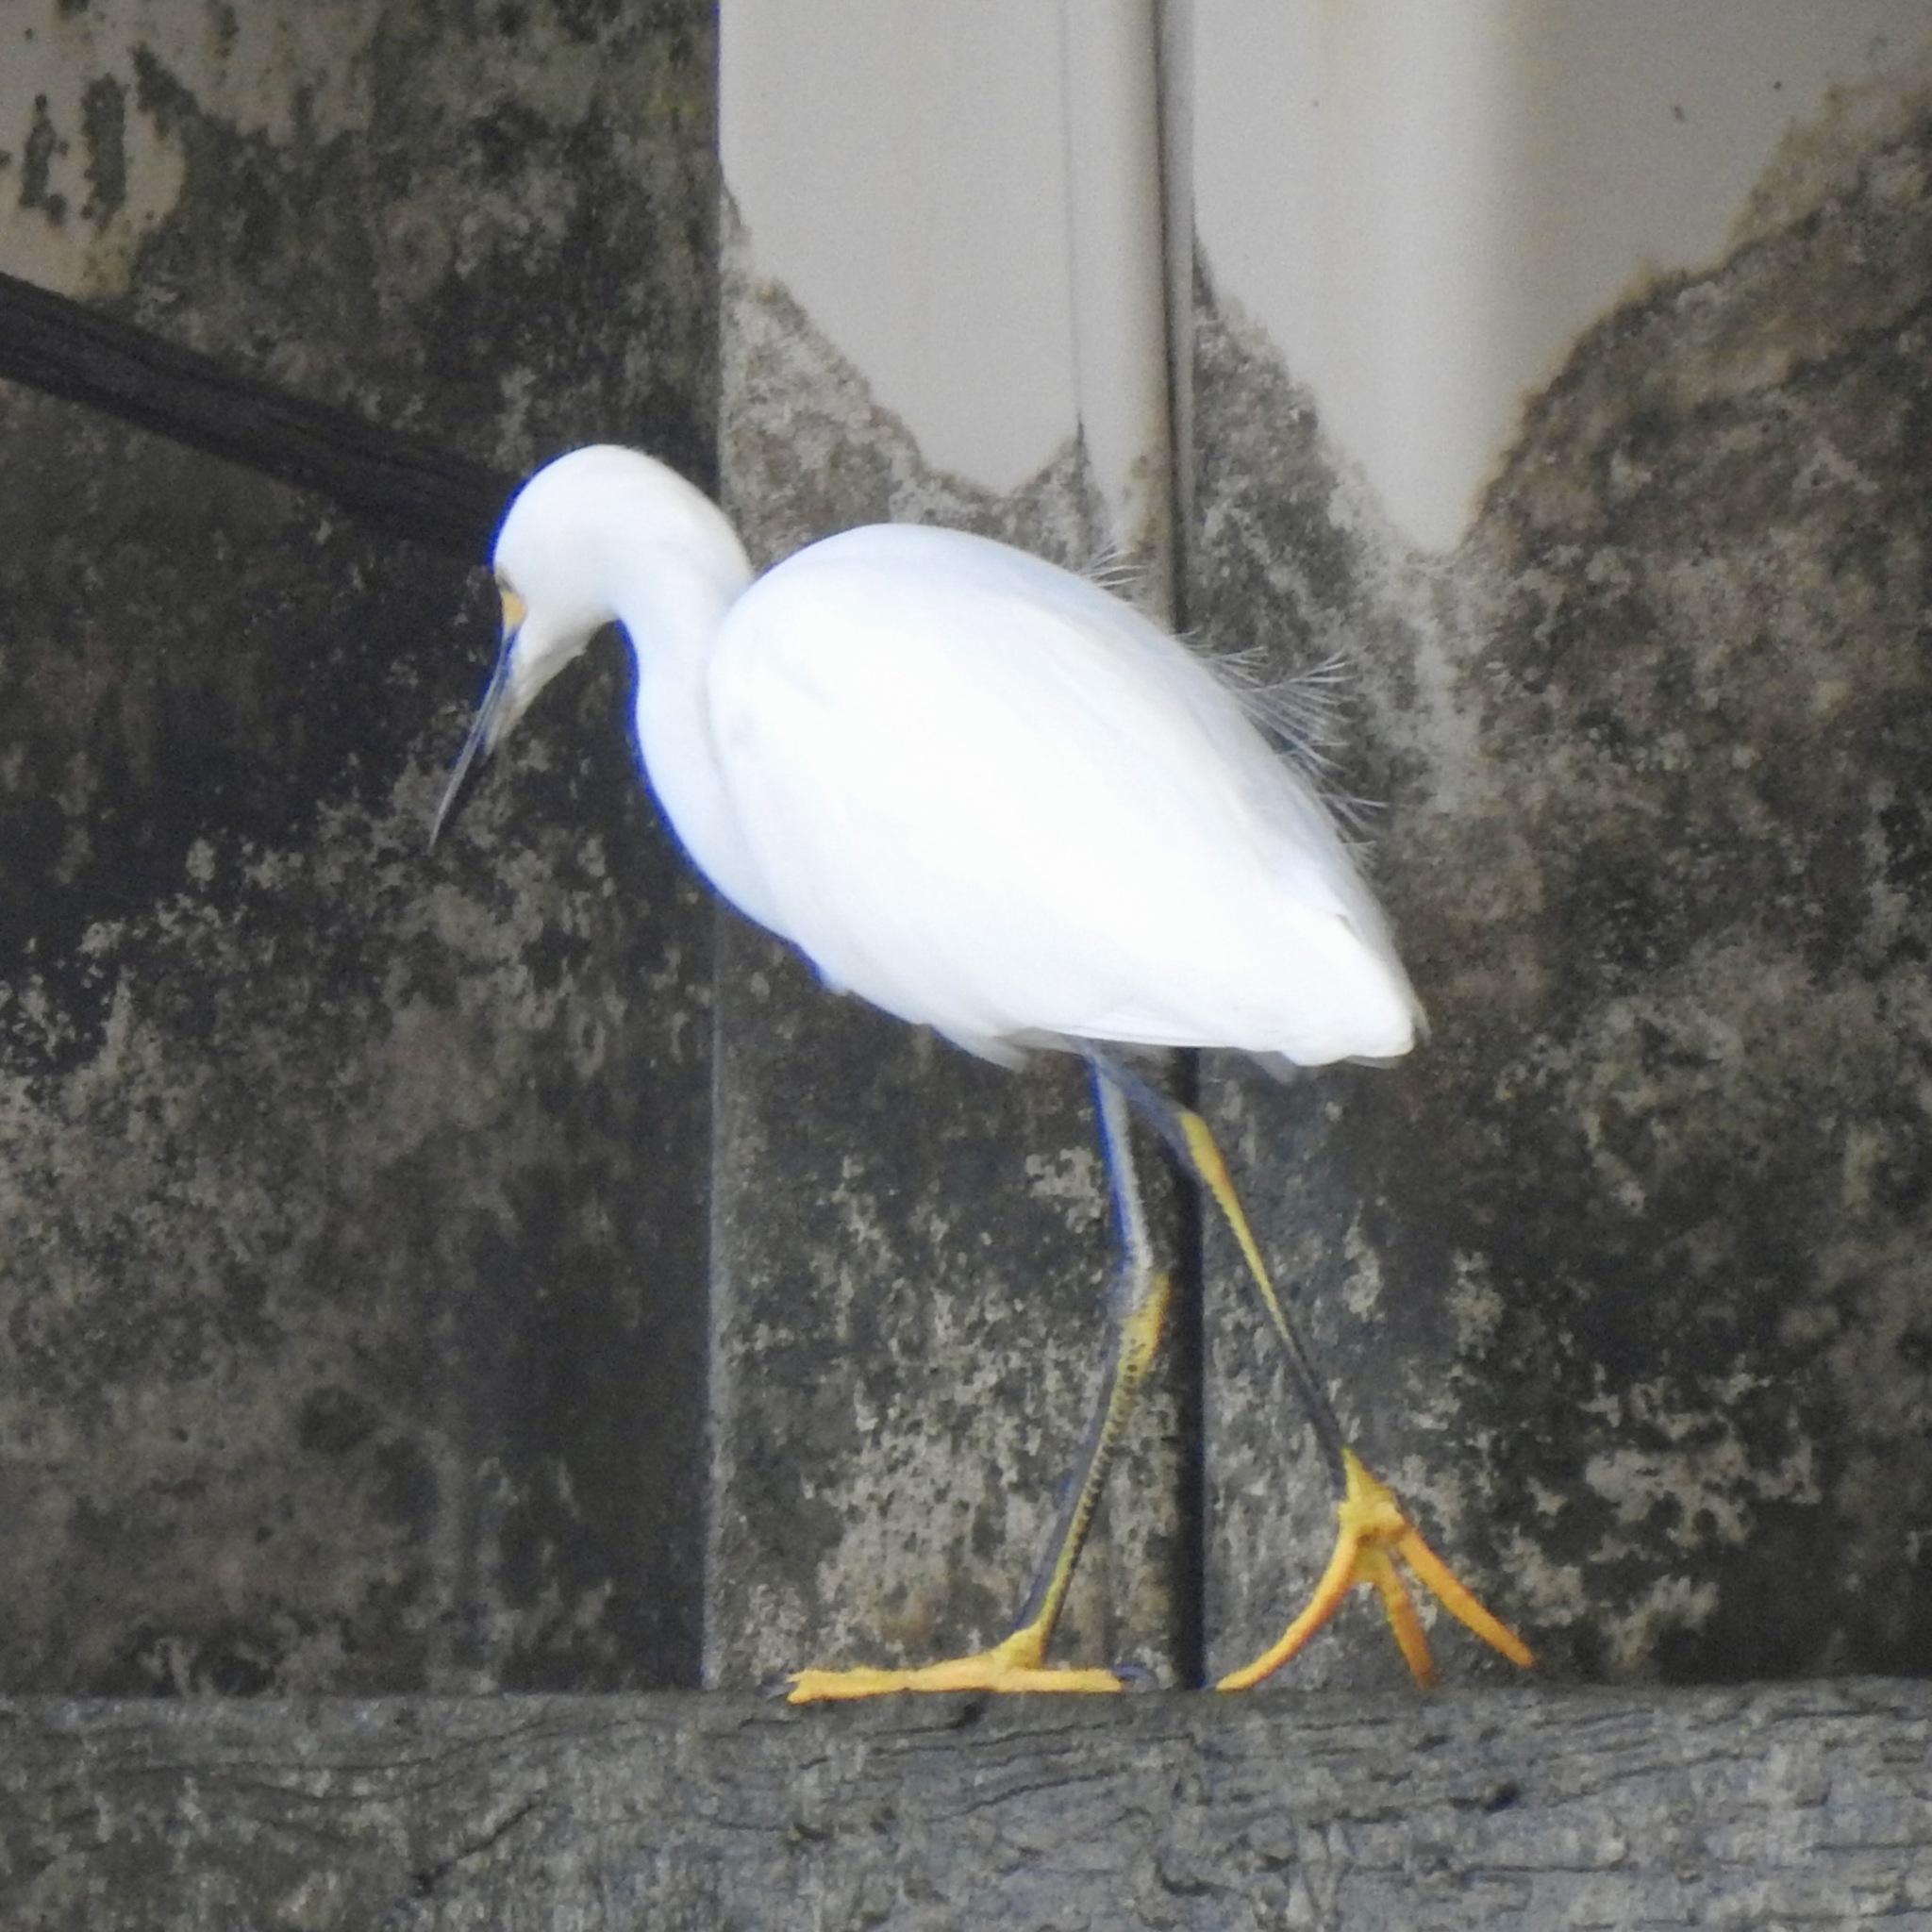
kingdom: Animalia
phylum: Chordata
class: Aves
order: Pelecaniformes
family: Ardeidae
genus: Egretta
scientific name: Egretta thula
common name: Snowy egret
